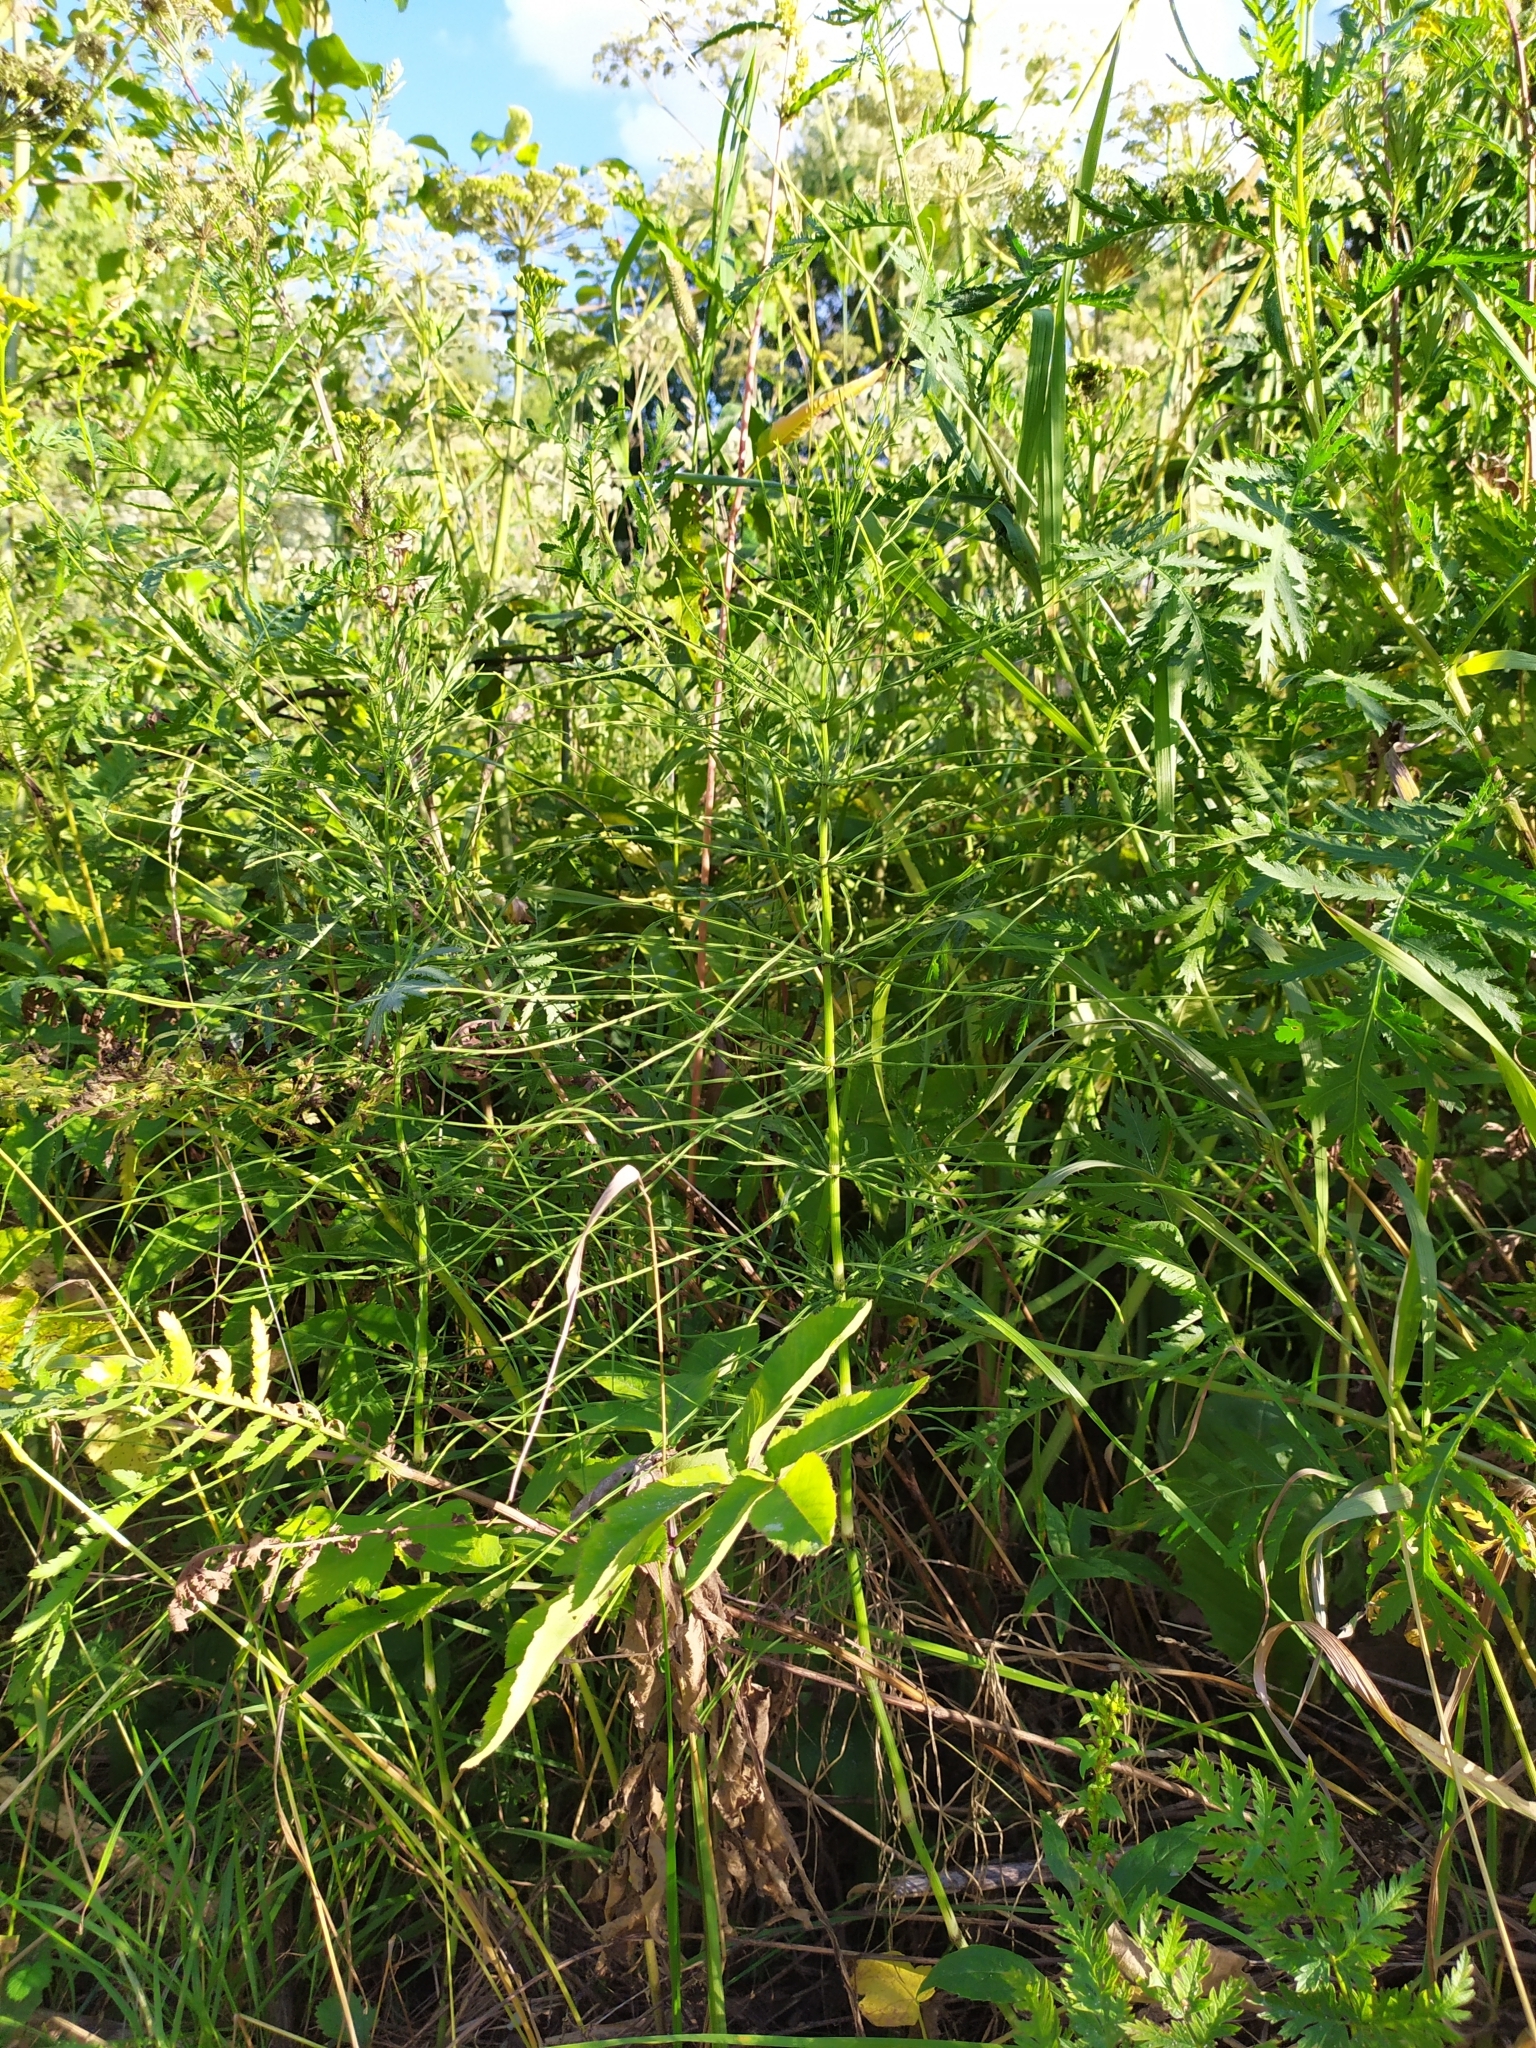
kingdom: Plantae
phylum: Tracheophyta
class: Polypodiopsida
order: Equisetales
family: Equisetaceae
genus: Equisetum
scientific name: Equisetum arvense
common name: Field horsetail
